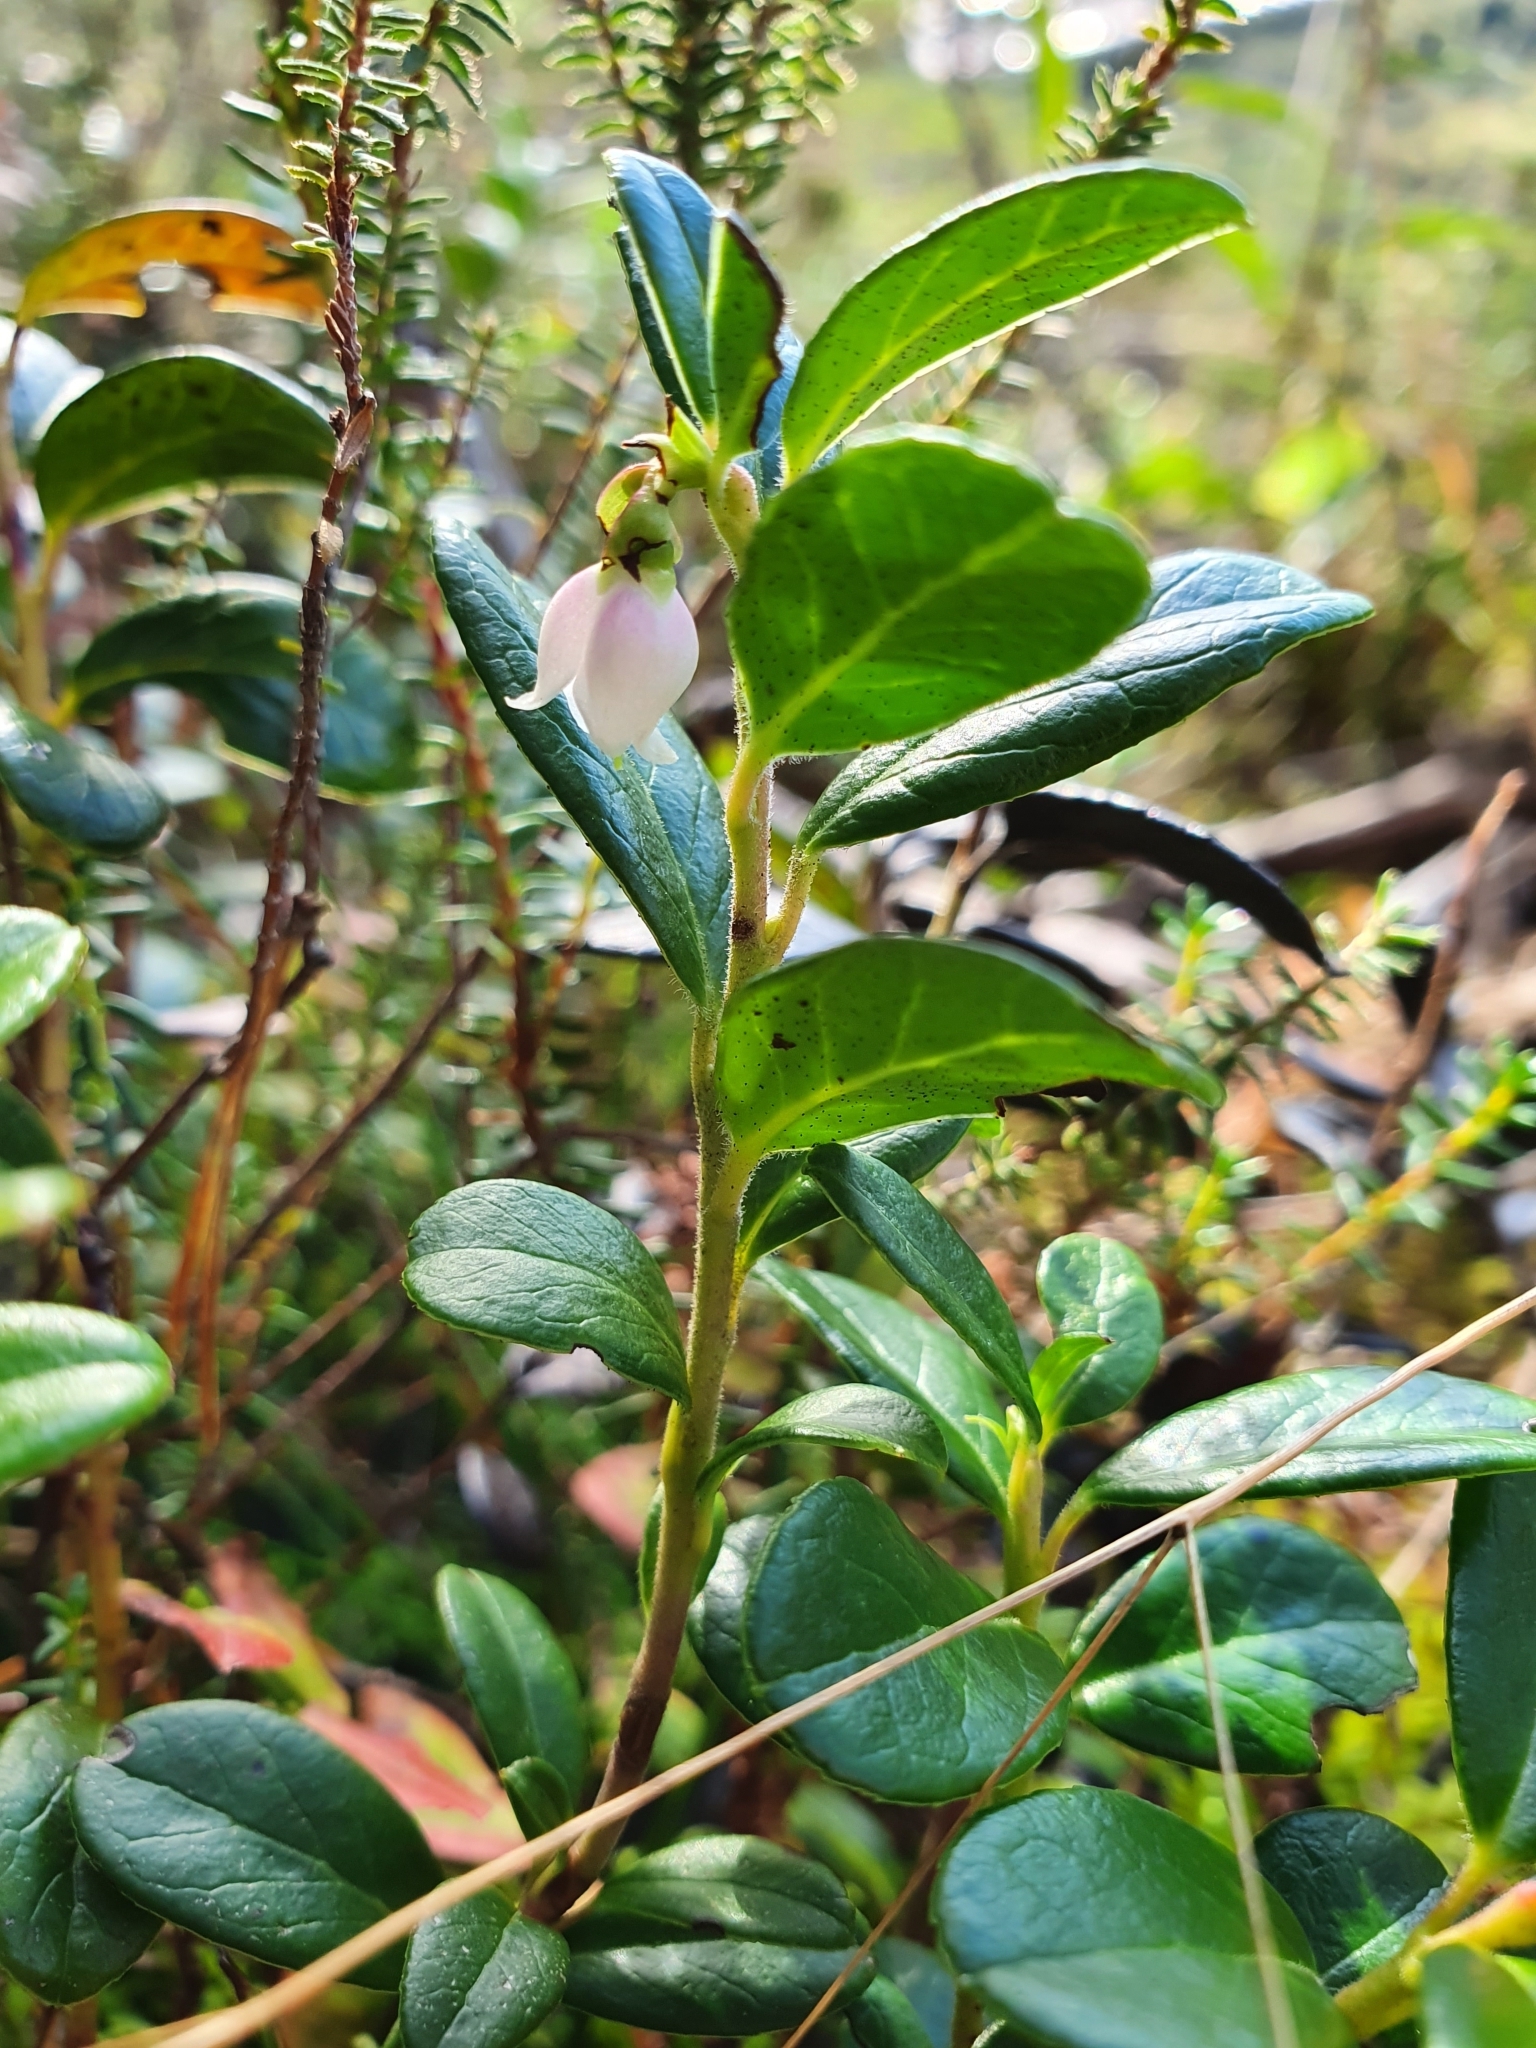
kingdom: Plantae
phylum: Tracheophyta
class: Magnoliopsida
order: Ericales
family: Ericaceae
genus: Vaccinium
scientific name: Vaccinium vitis-idaea
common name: Cowberry
